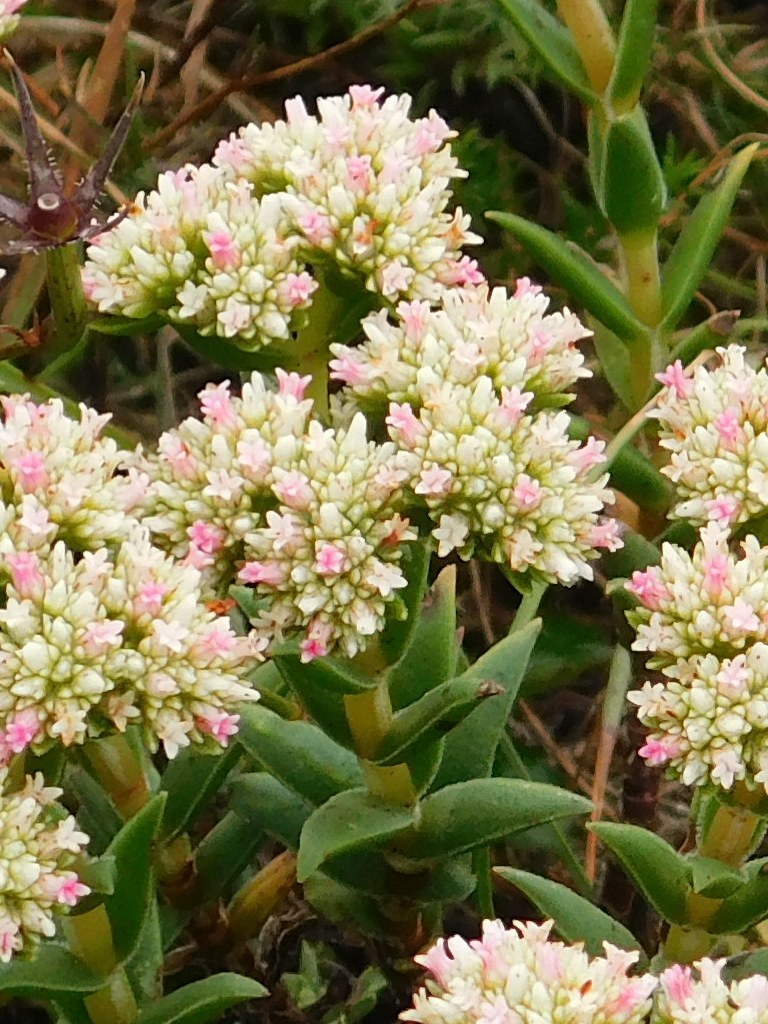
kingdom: Plantae
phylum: Tracheophyta
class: Magnoliopsida
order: Saxifragales
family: Crassulaceae
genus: Crassula
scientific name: Crassula subulata
